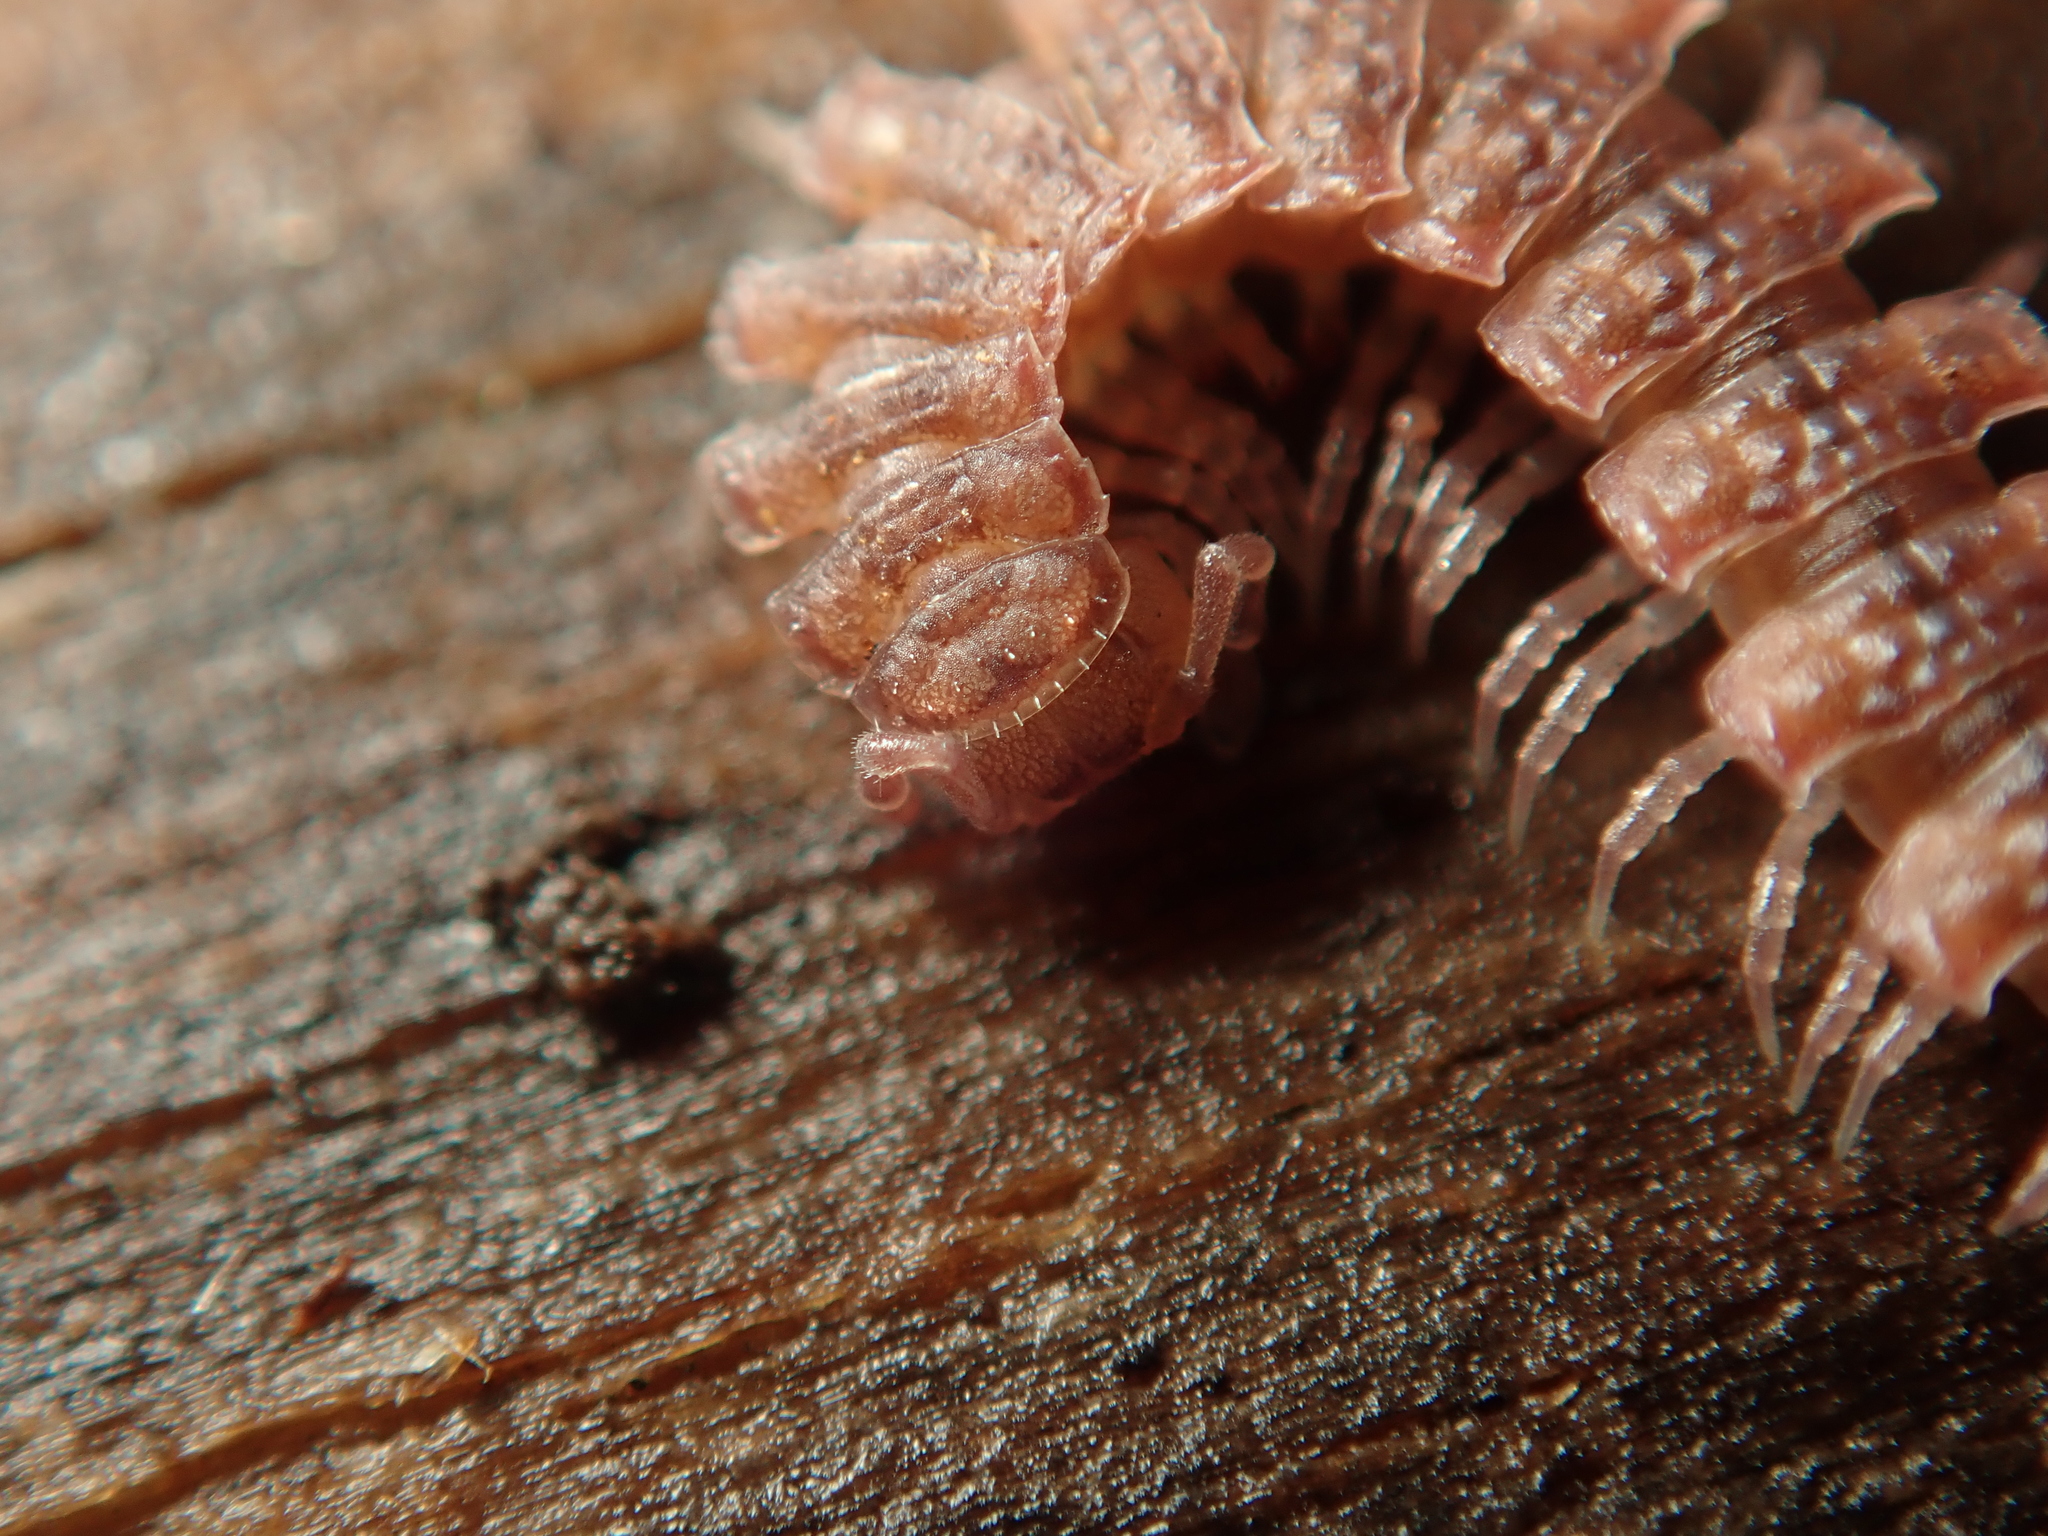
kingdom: Animalia
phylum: Arthropoda
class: Diplopoda
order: Polydesmida
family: Polydesmidae
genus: Polydesmus
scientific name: Polydesmus angustus
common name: Flat millipede
